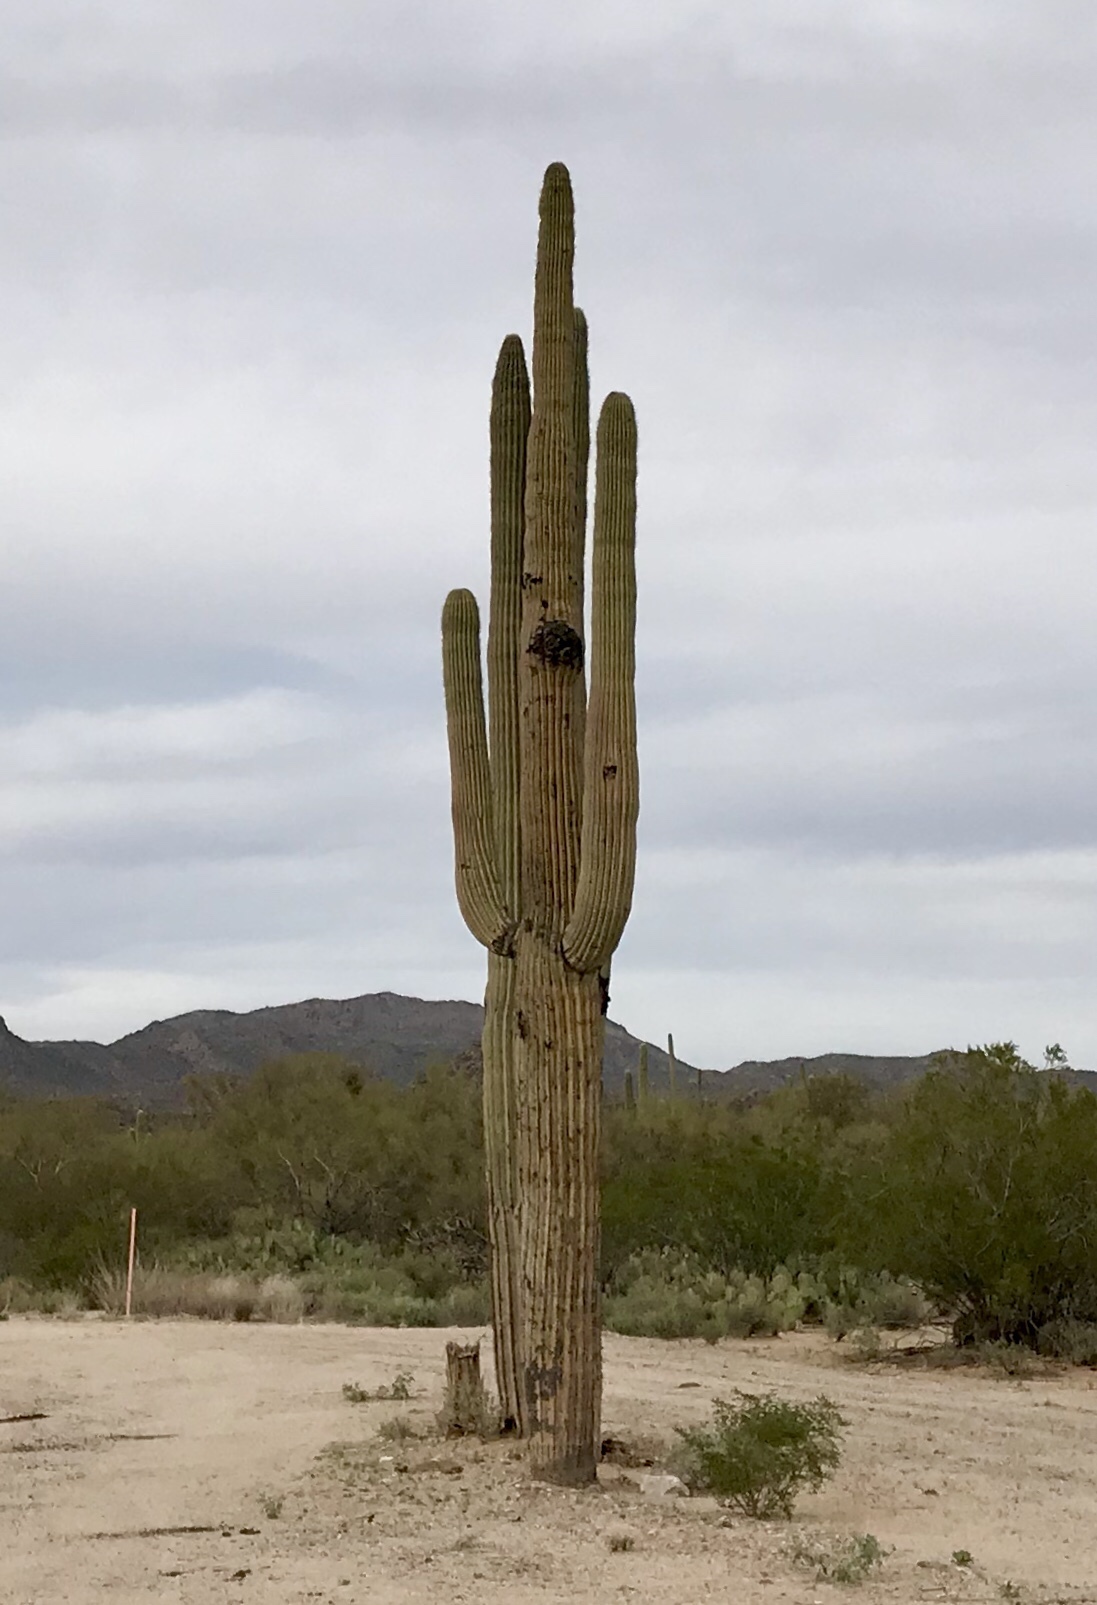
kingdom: Plantae
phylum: Tracheophyta
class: Magnoliopsida
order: Caryophyllales
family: Cactaceae
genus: Carnegiea
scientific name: Carnegiea gigantea
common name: Saguaro
